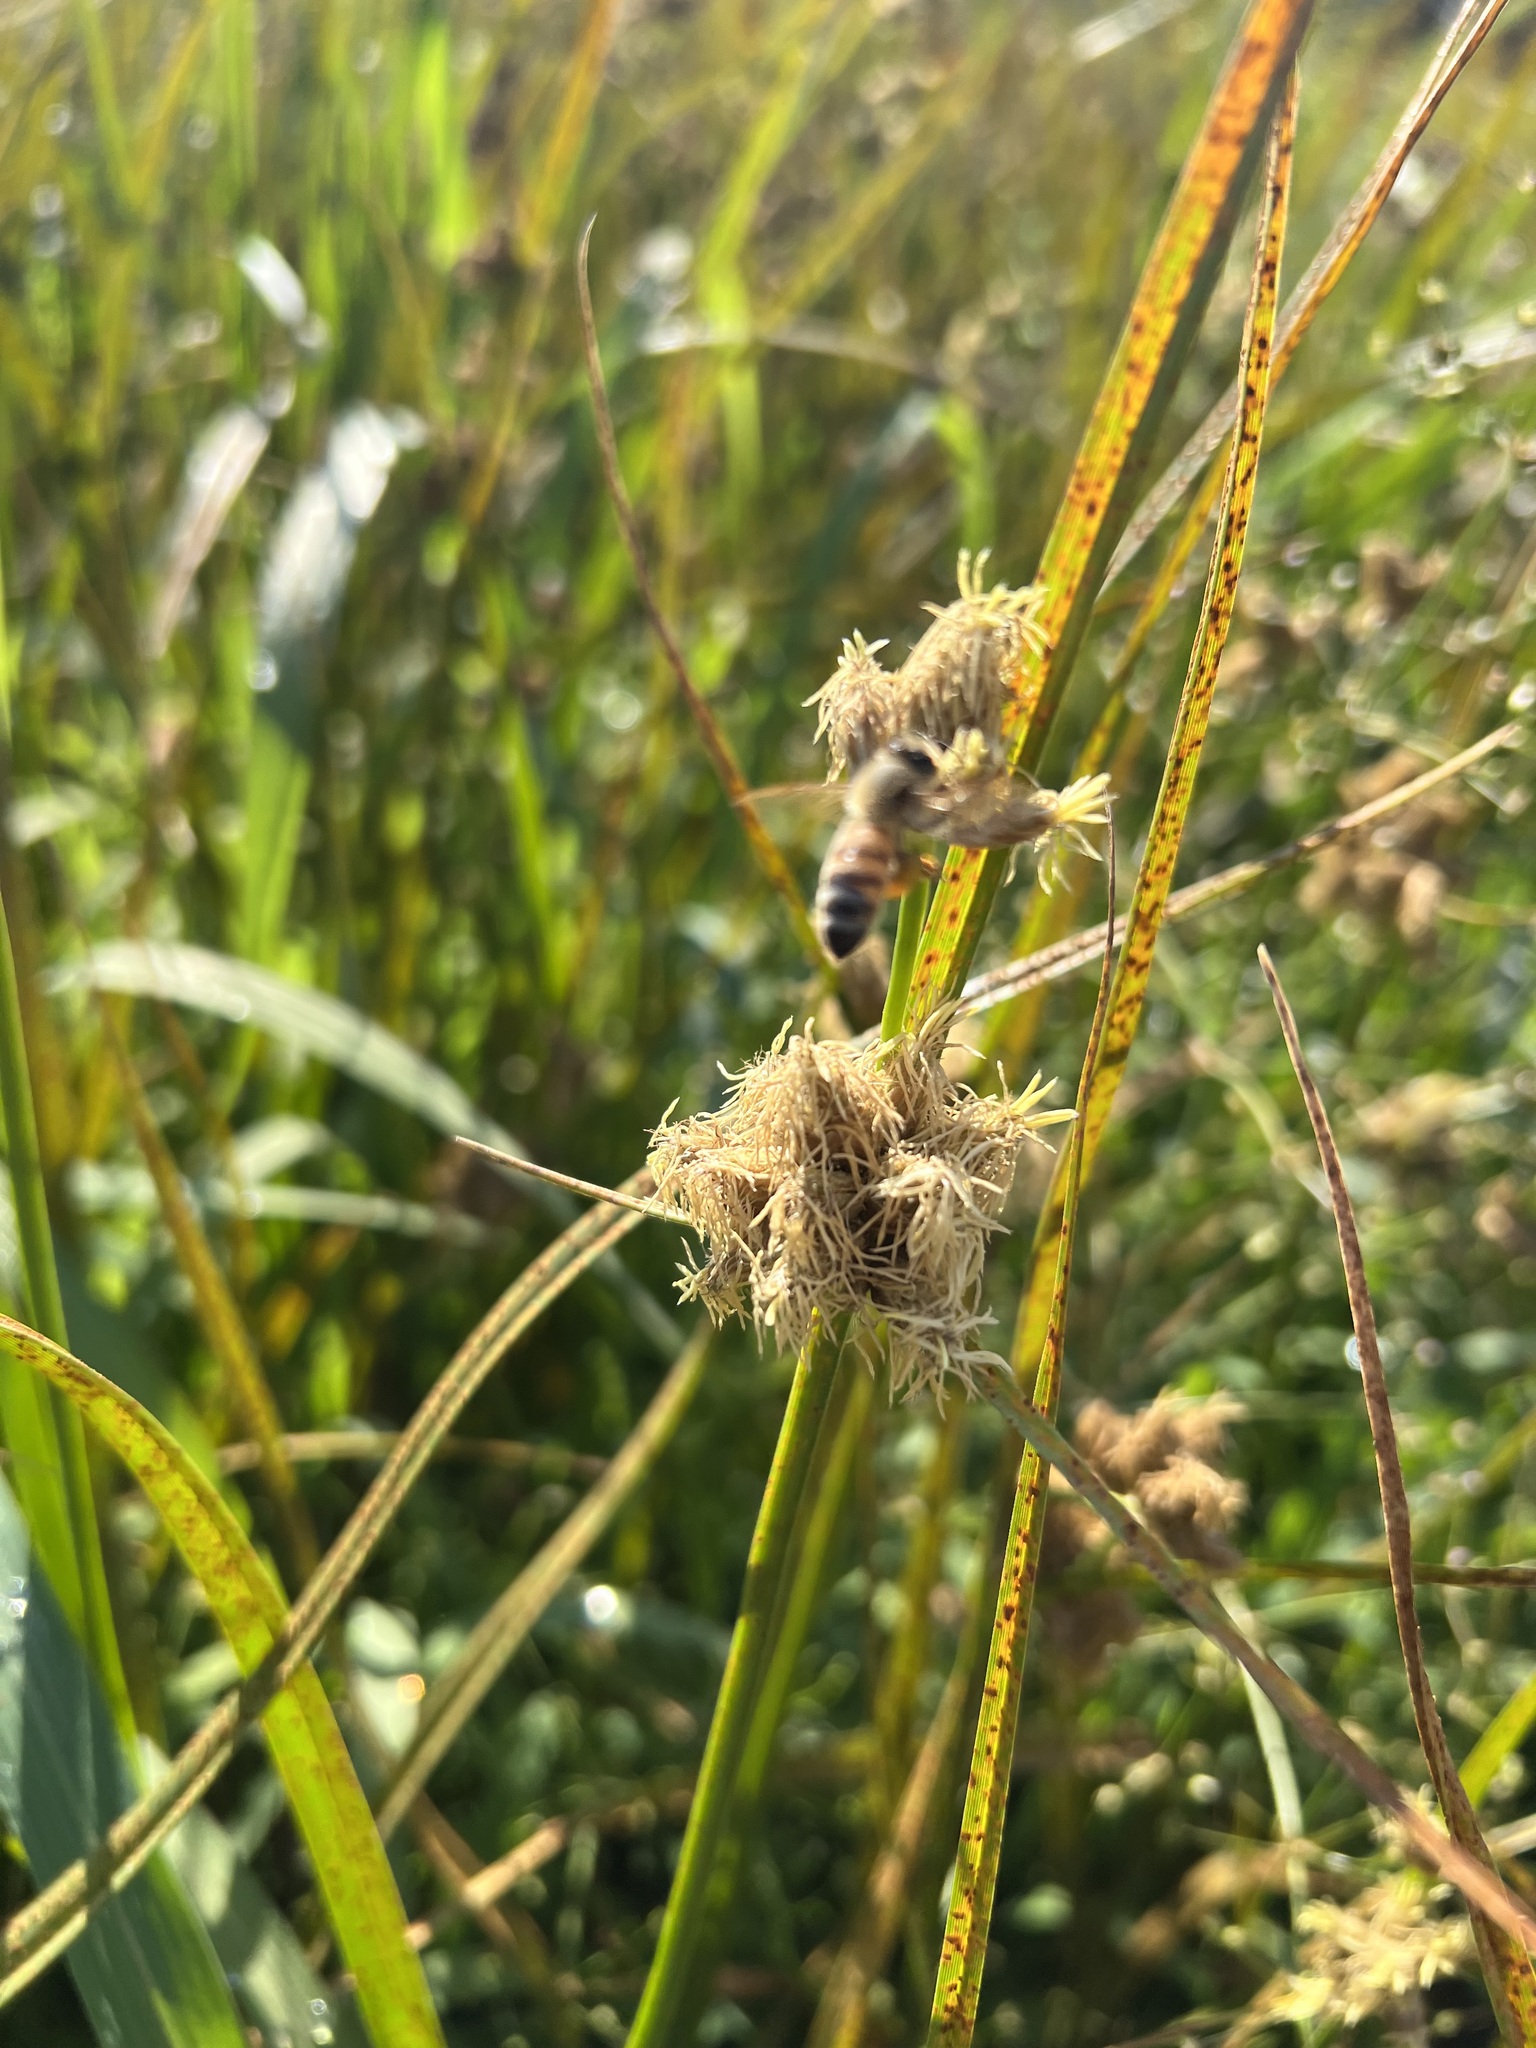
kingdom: Animalia
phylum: Arthropoda
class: Insecta
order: Hymenoptera
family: Apidae
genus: Apis
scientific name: Apis mellifera
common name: Honey bee
